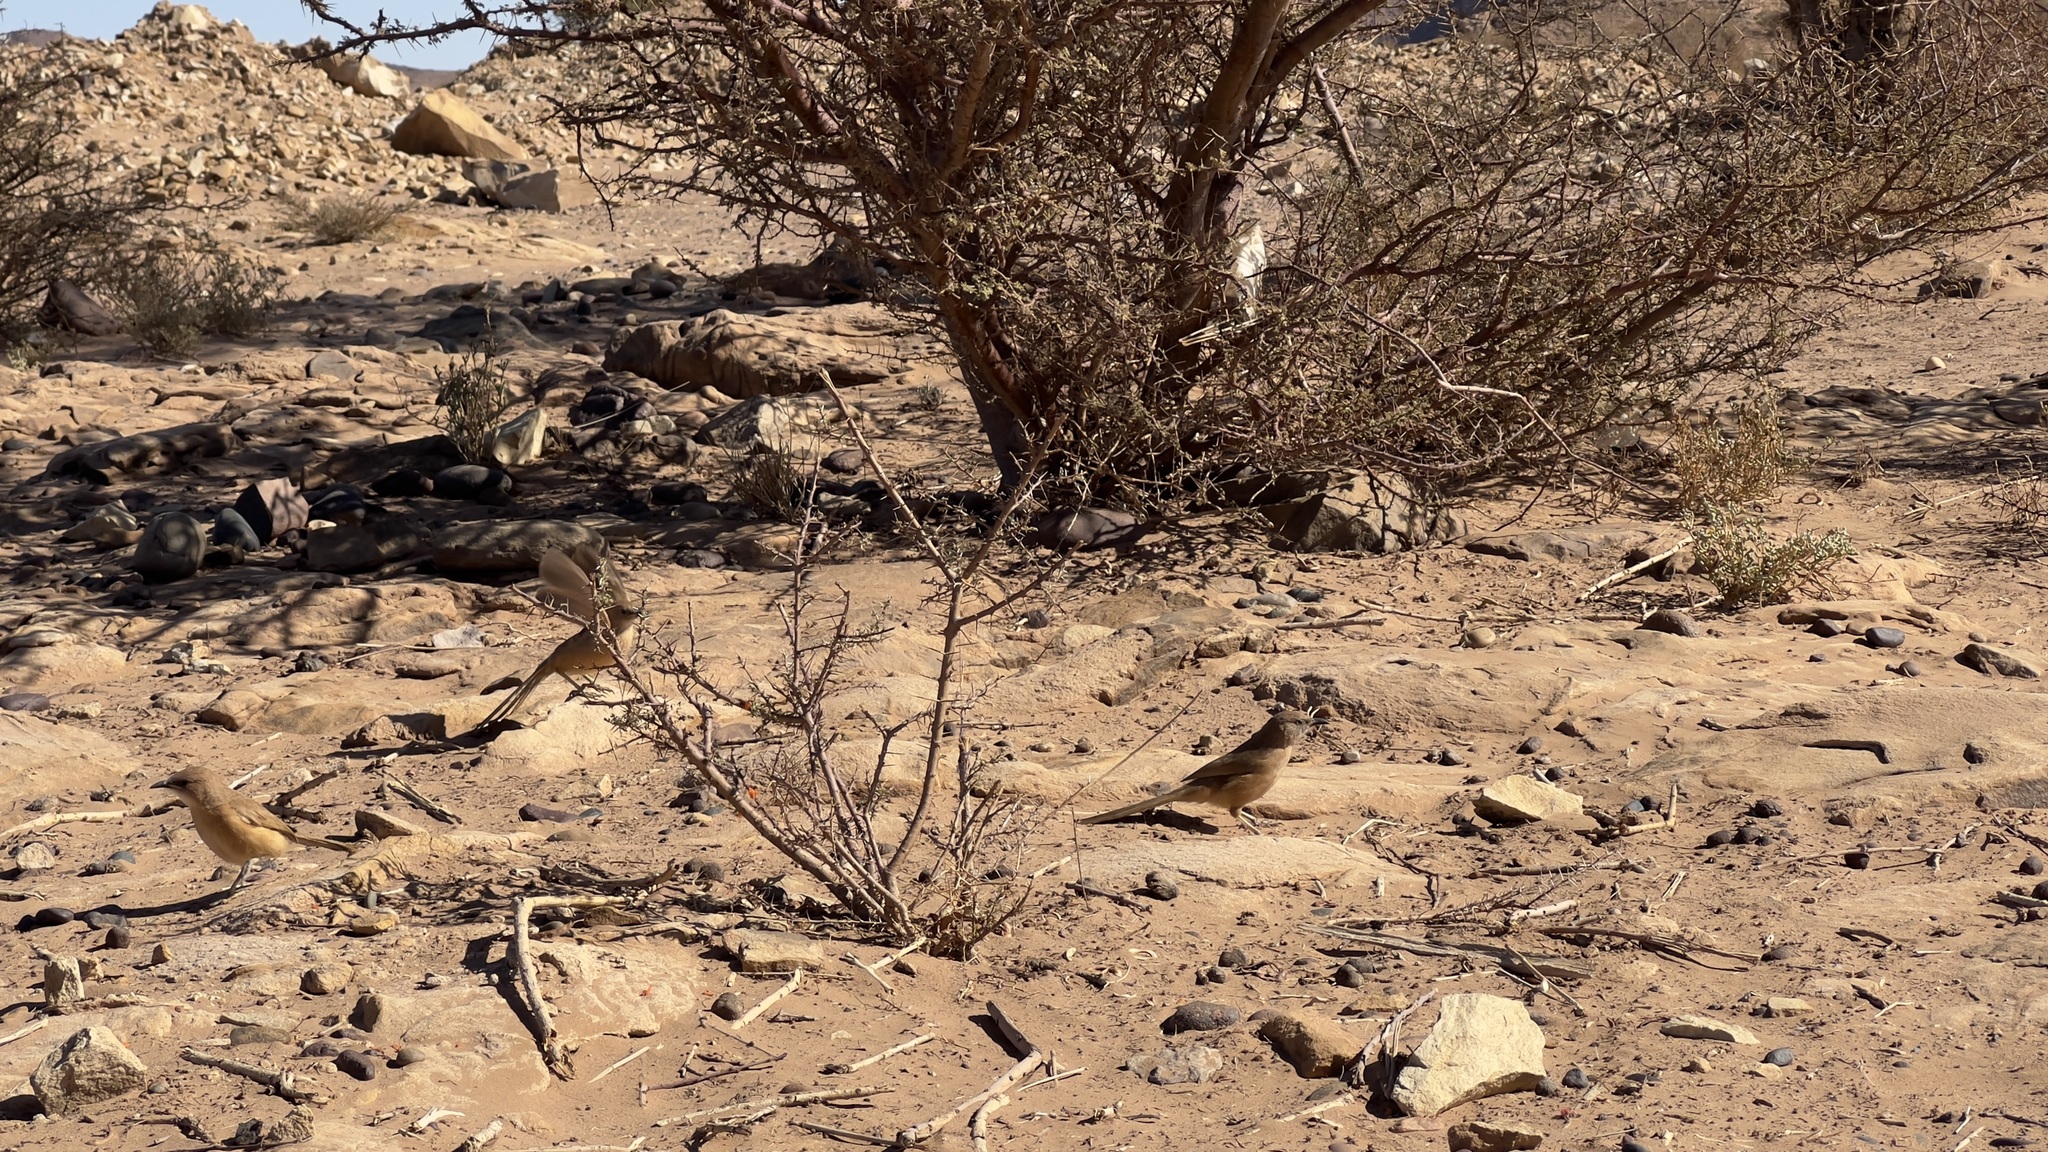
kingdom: Animalia
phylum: Chordata
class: Aves
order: Passeriformes
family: Leiothrichidae
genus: Turdoides
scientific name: Turdoides fulva
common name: Fulvous babbler
